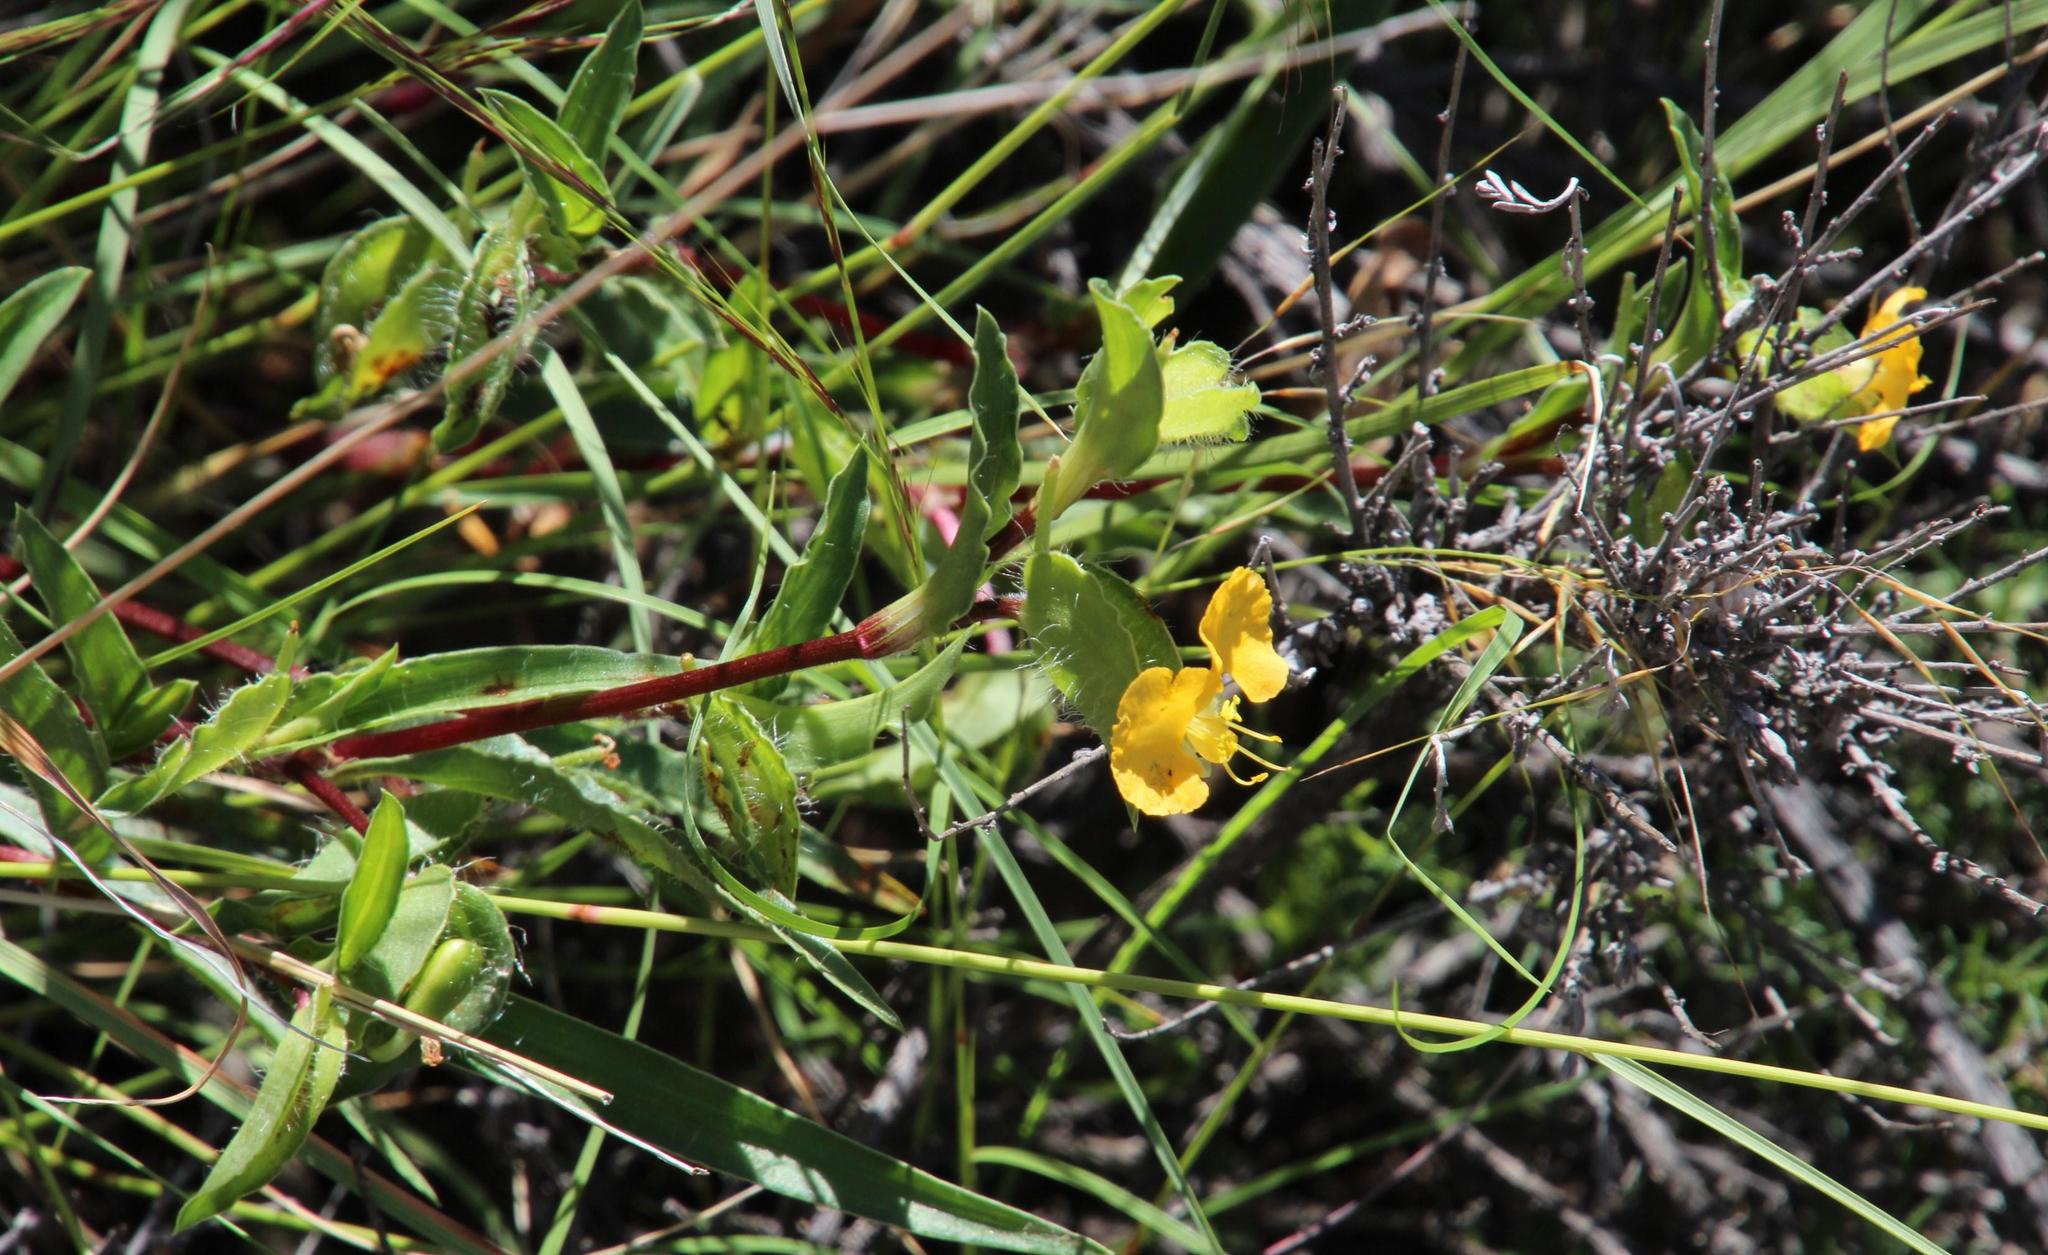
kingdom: Plantae
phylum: Tracheophyta
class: Liliopsida
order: Commelinales
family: Commelinaceae
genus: Commelina
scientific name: Commelina africana
